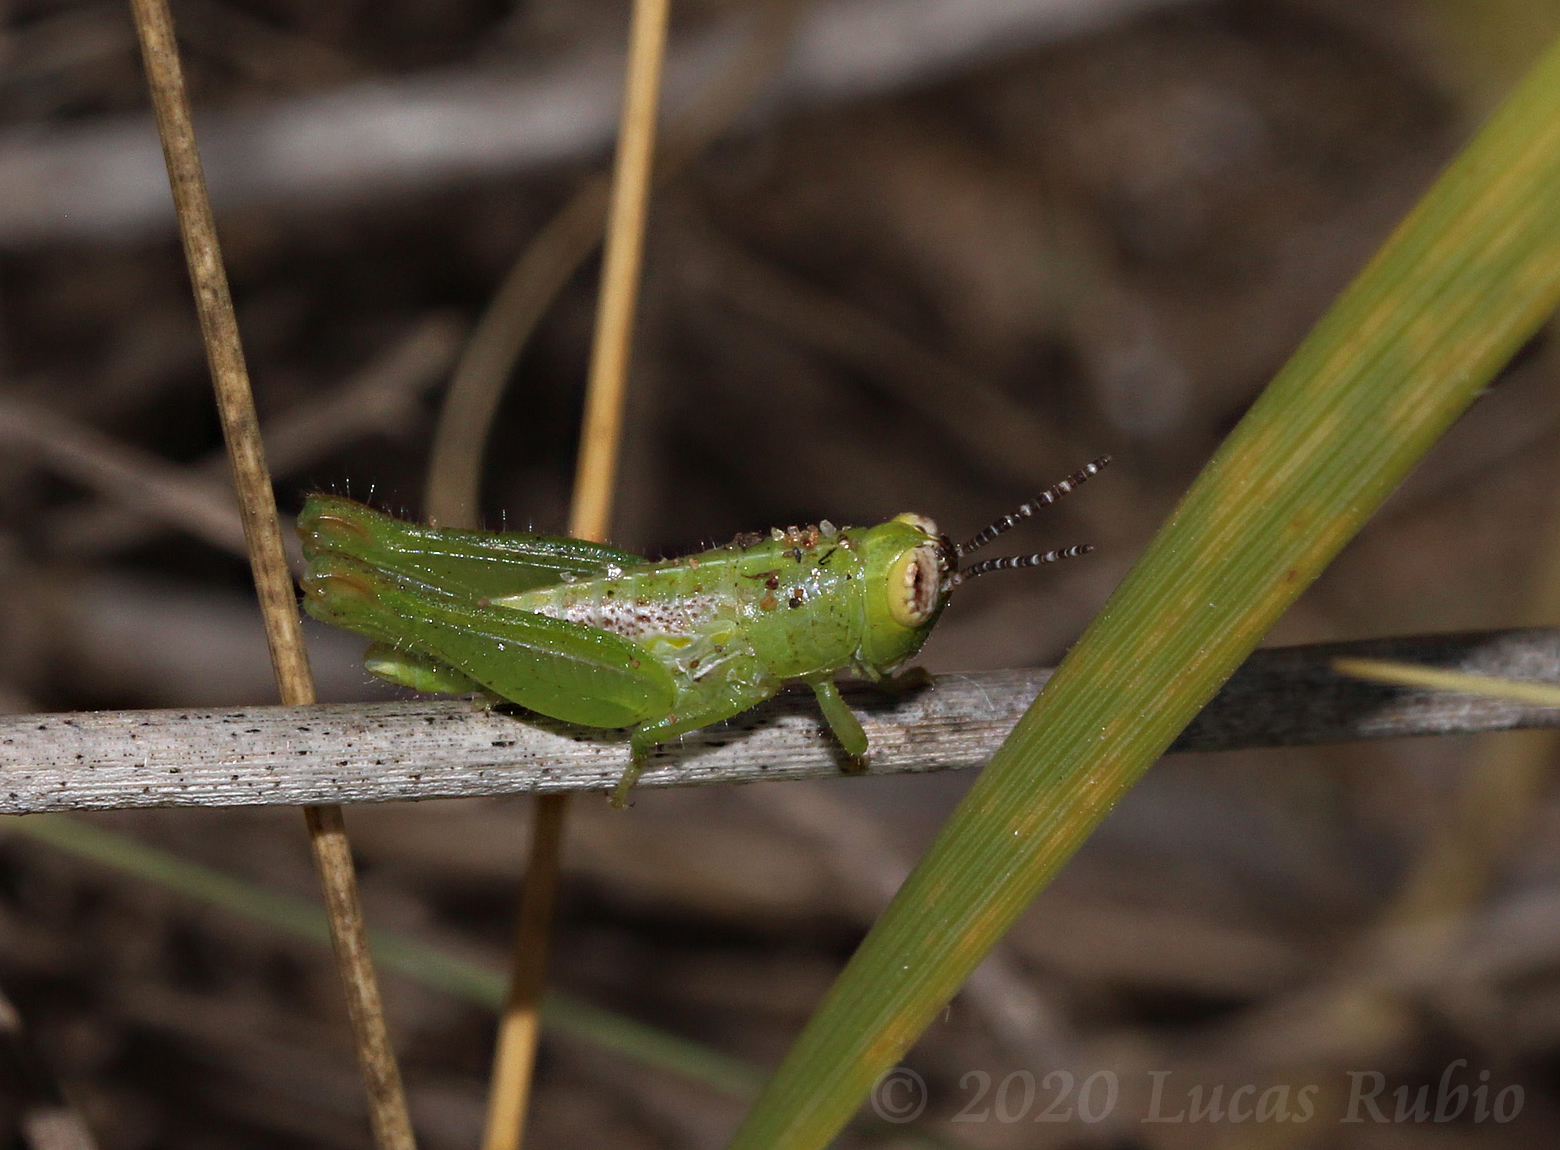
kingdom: Animalia
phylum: Arthropoda
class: Insecta
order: Orthoptera
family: Acrididae
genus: Neopedies
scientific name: Neopedies brunneri
